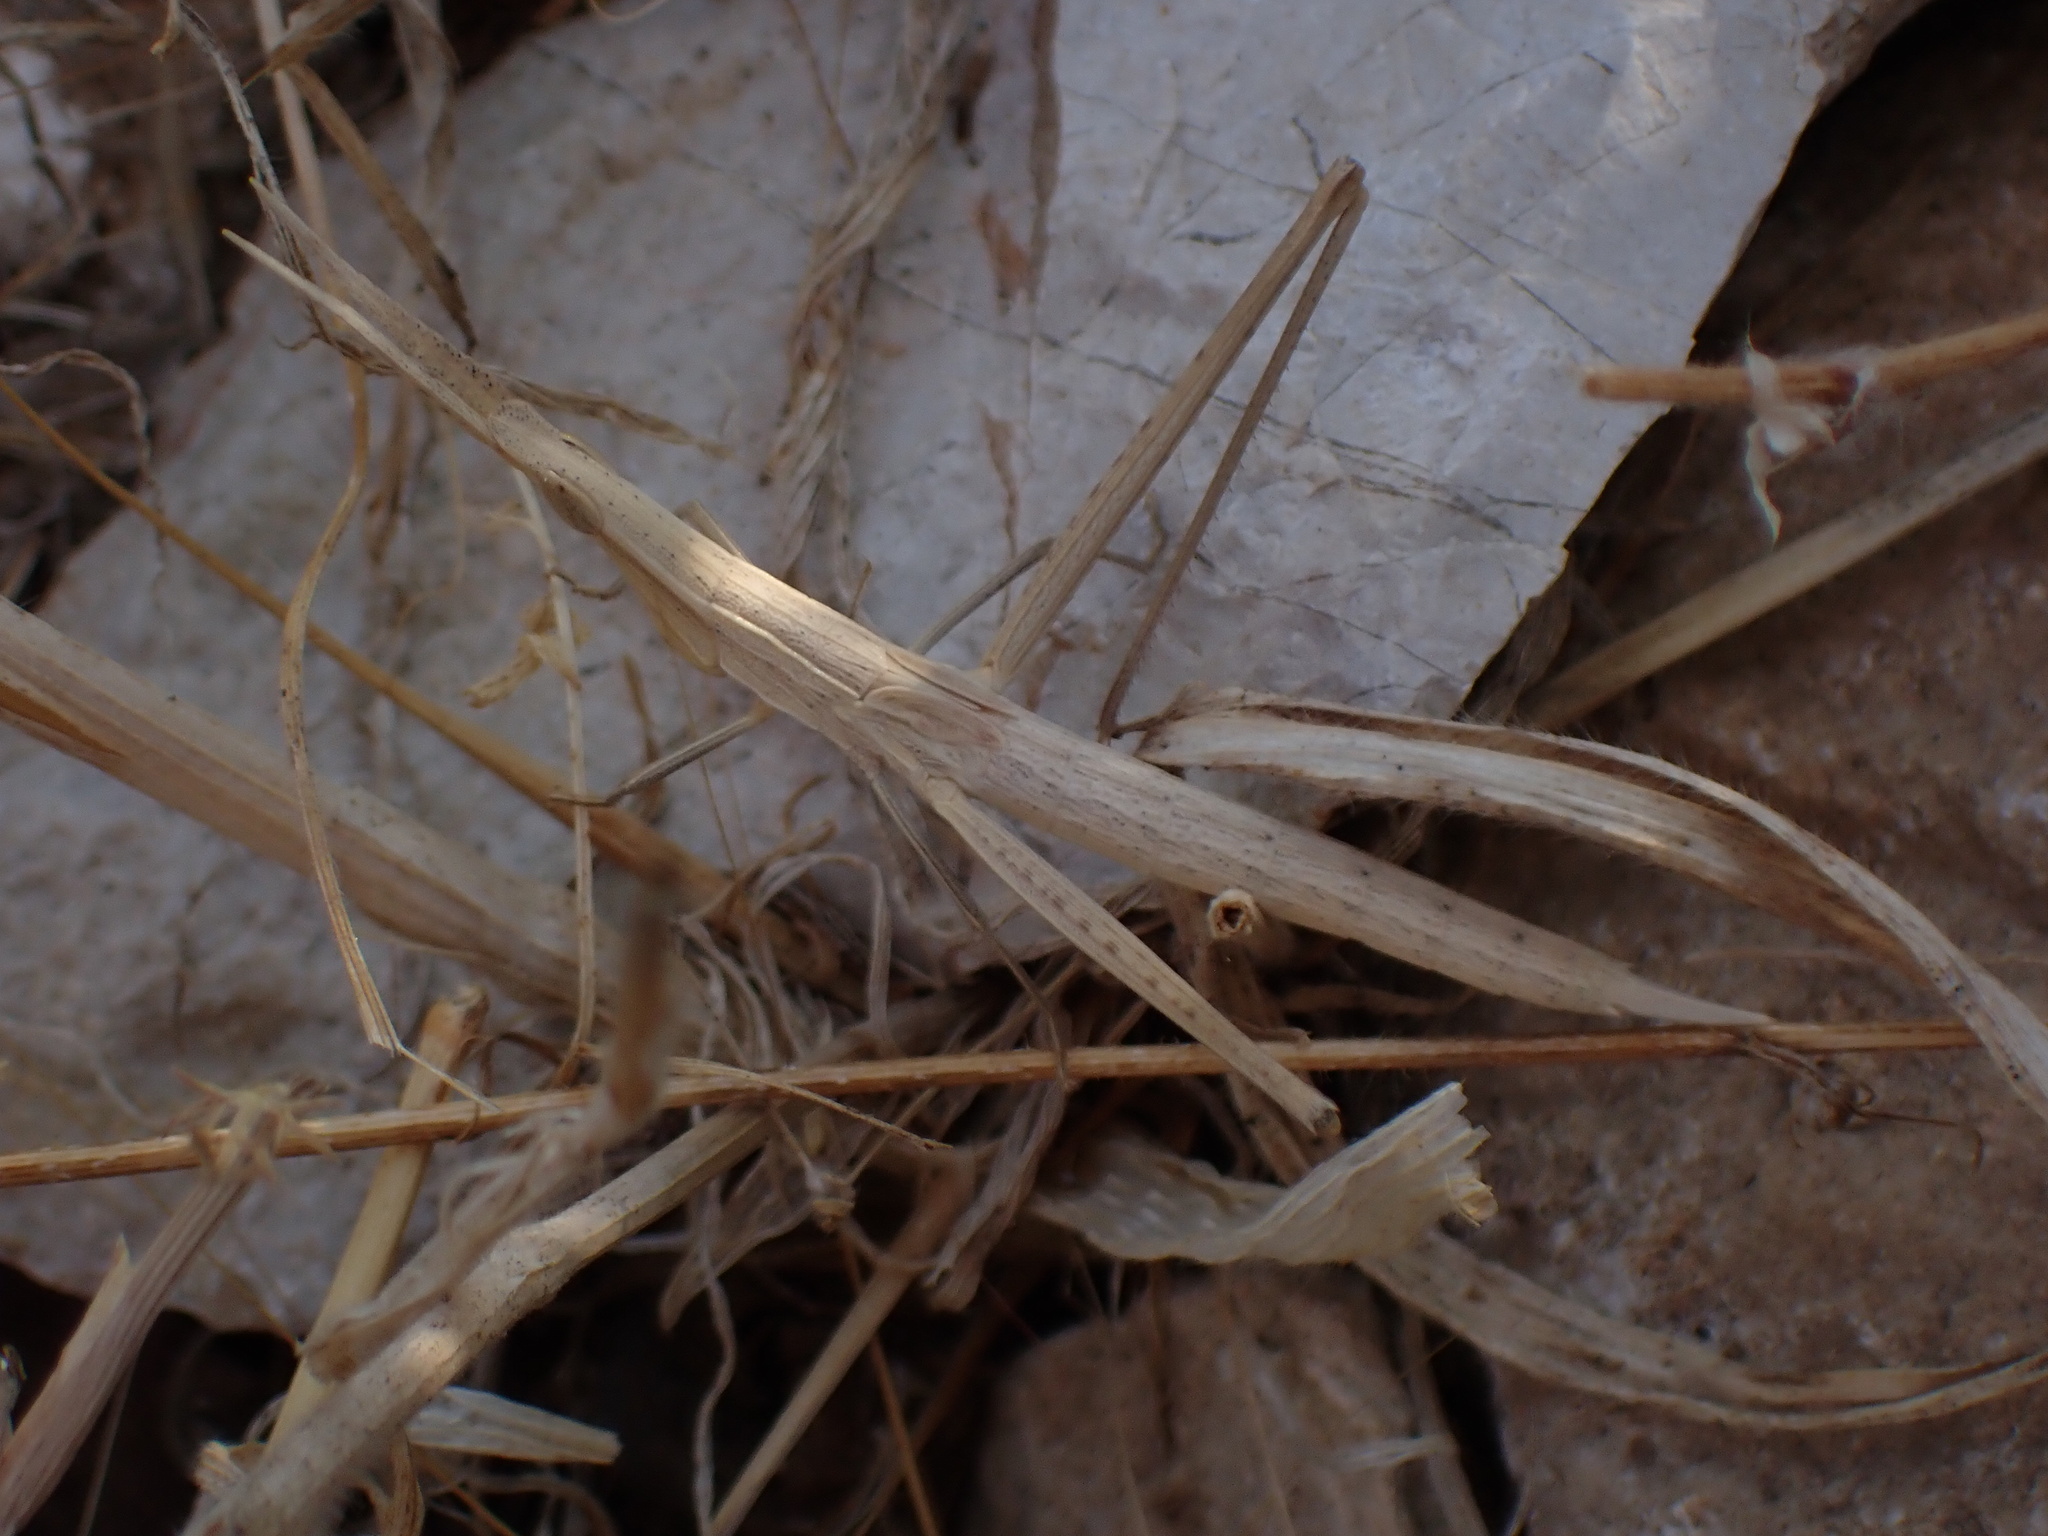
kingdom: Animalia
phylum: Arthropoda
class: Insecta
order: Orthoptera
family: Acrididae
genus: Acrida
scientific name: Acrida ungarica
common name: Common cone-headed grasshopper
